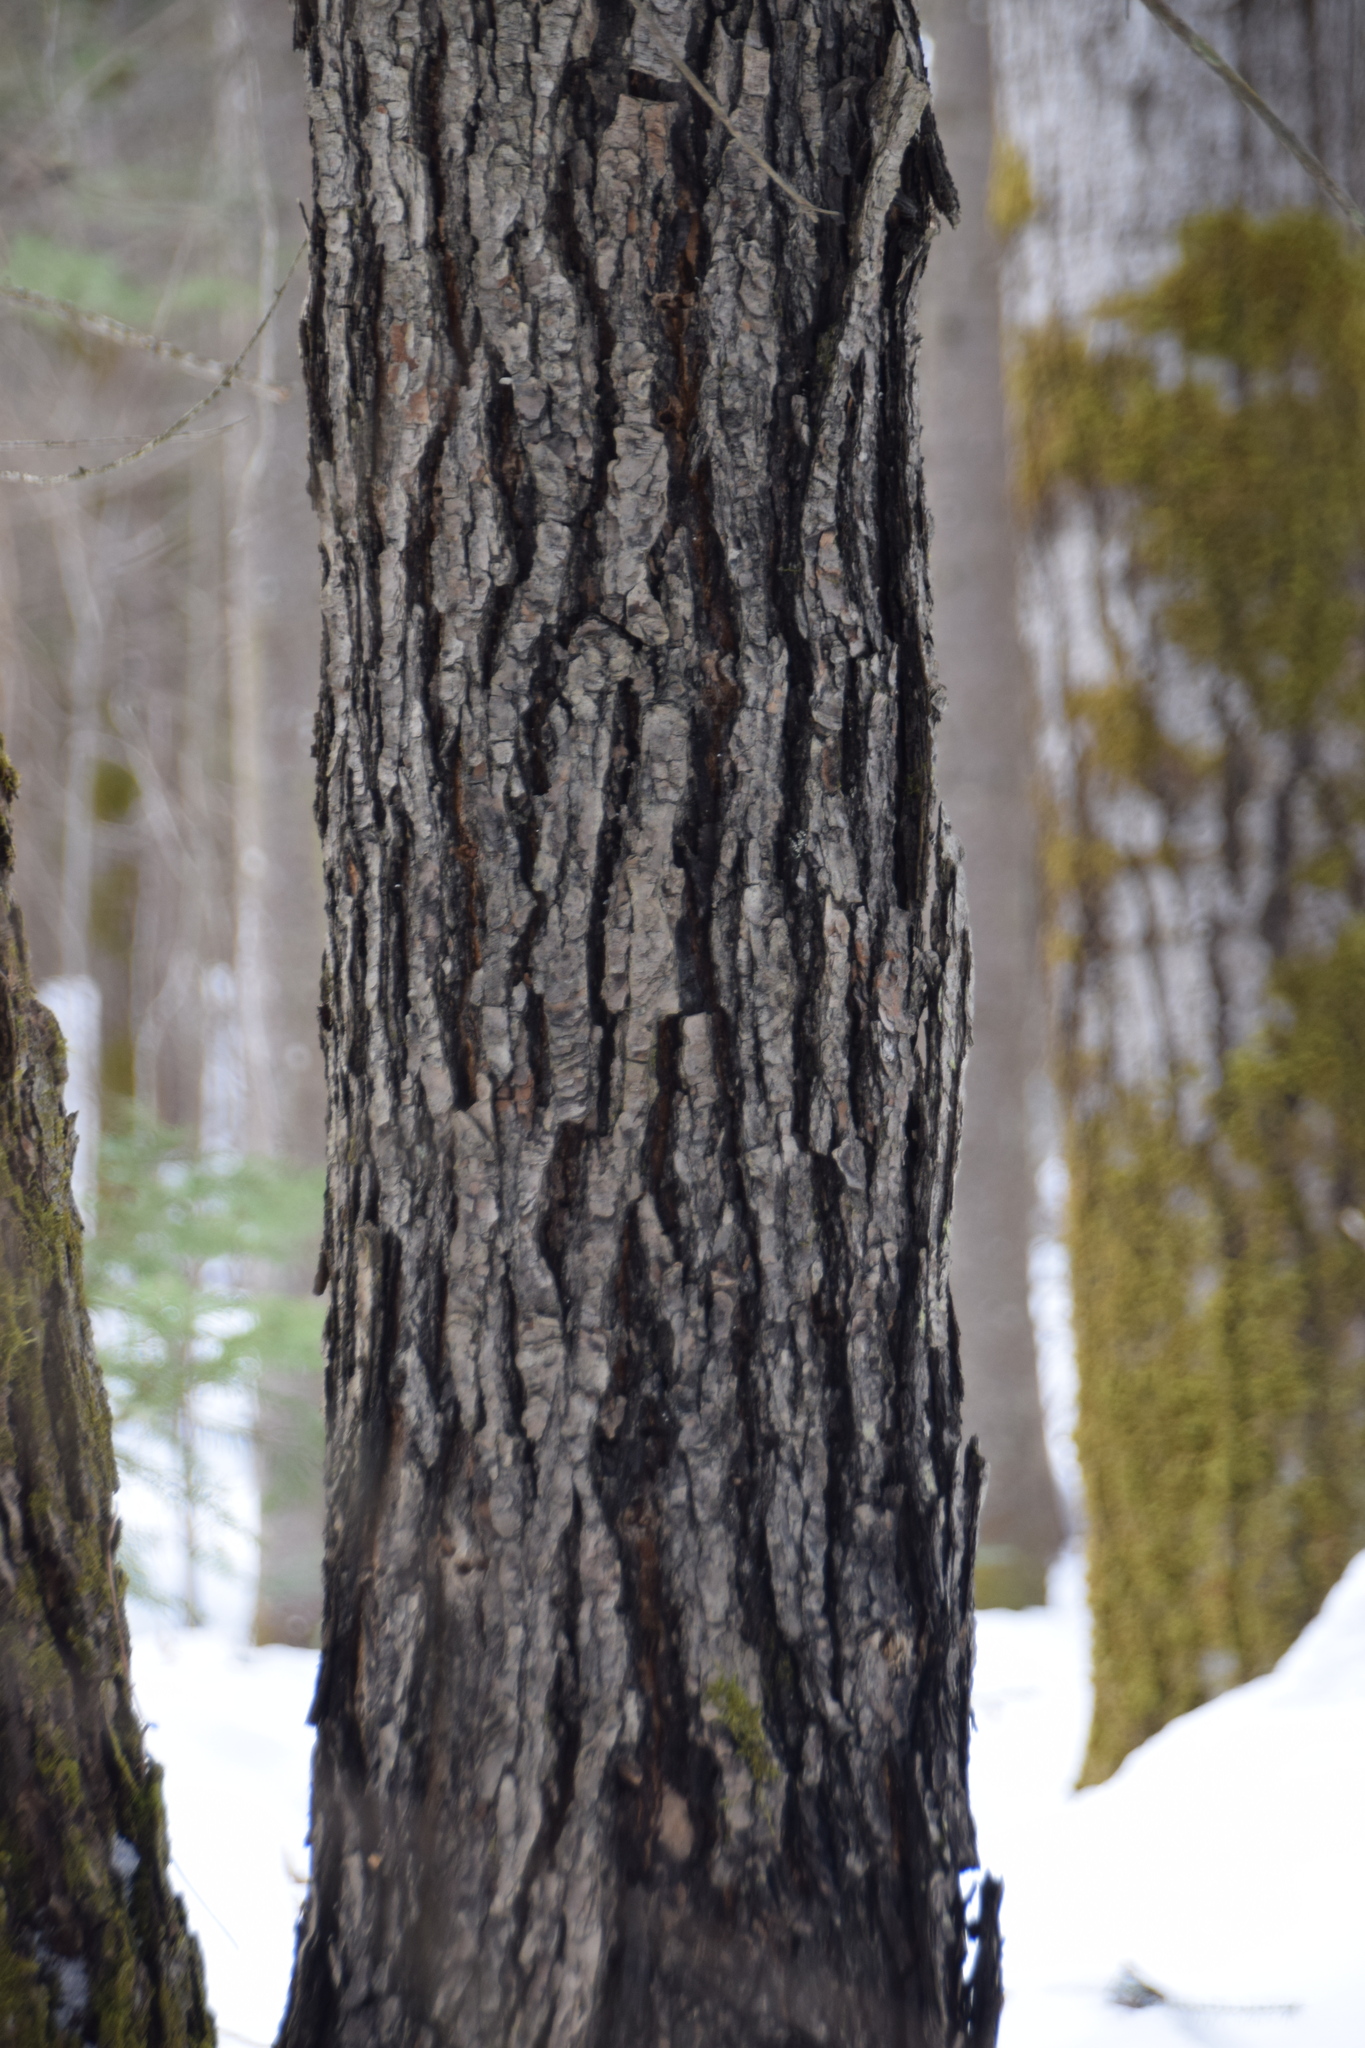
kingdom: Plantae
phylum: Tracheophyta
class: Magnoliopsida
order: Sapindales
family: Sapindaceae
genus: Acer
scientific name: Acer rubrum
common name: Red maple
